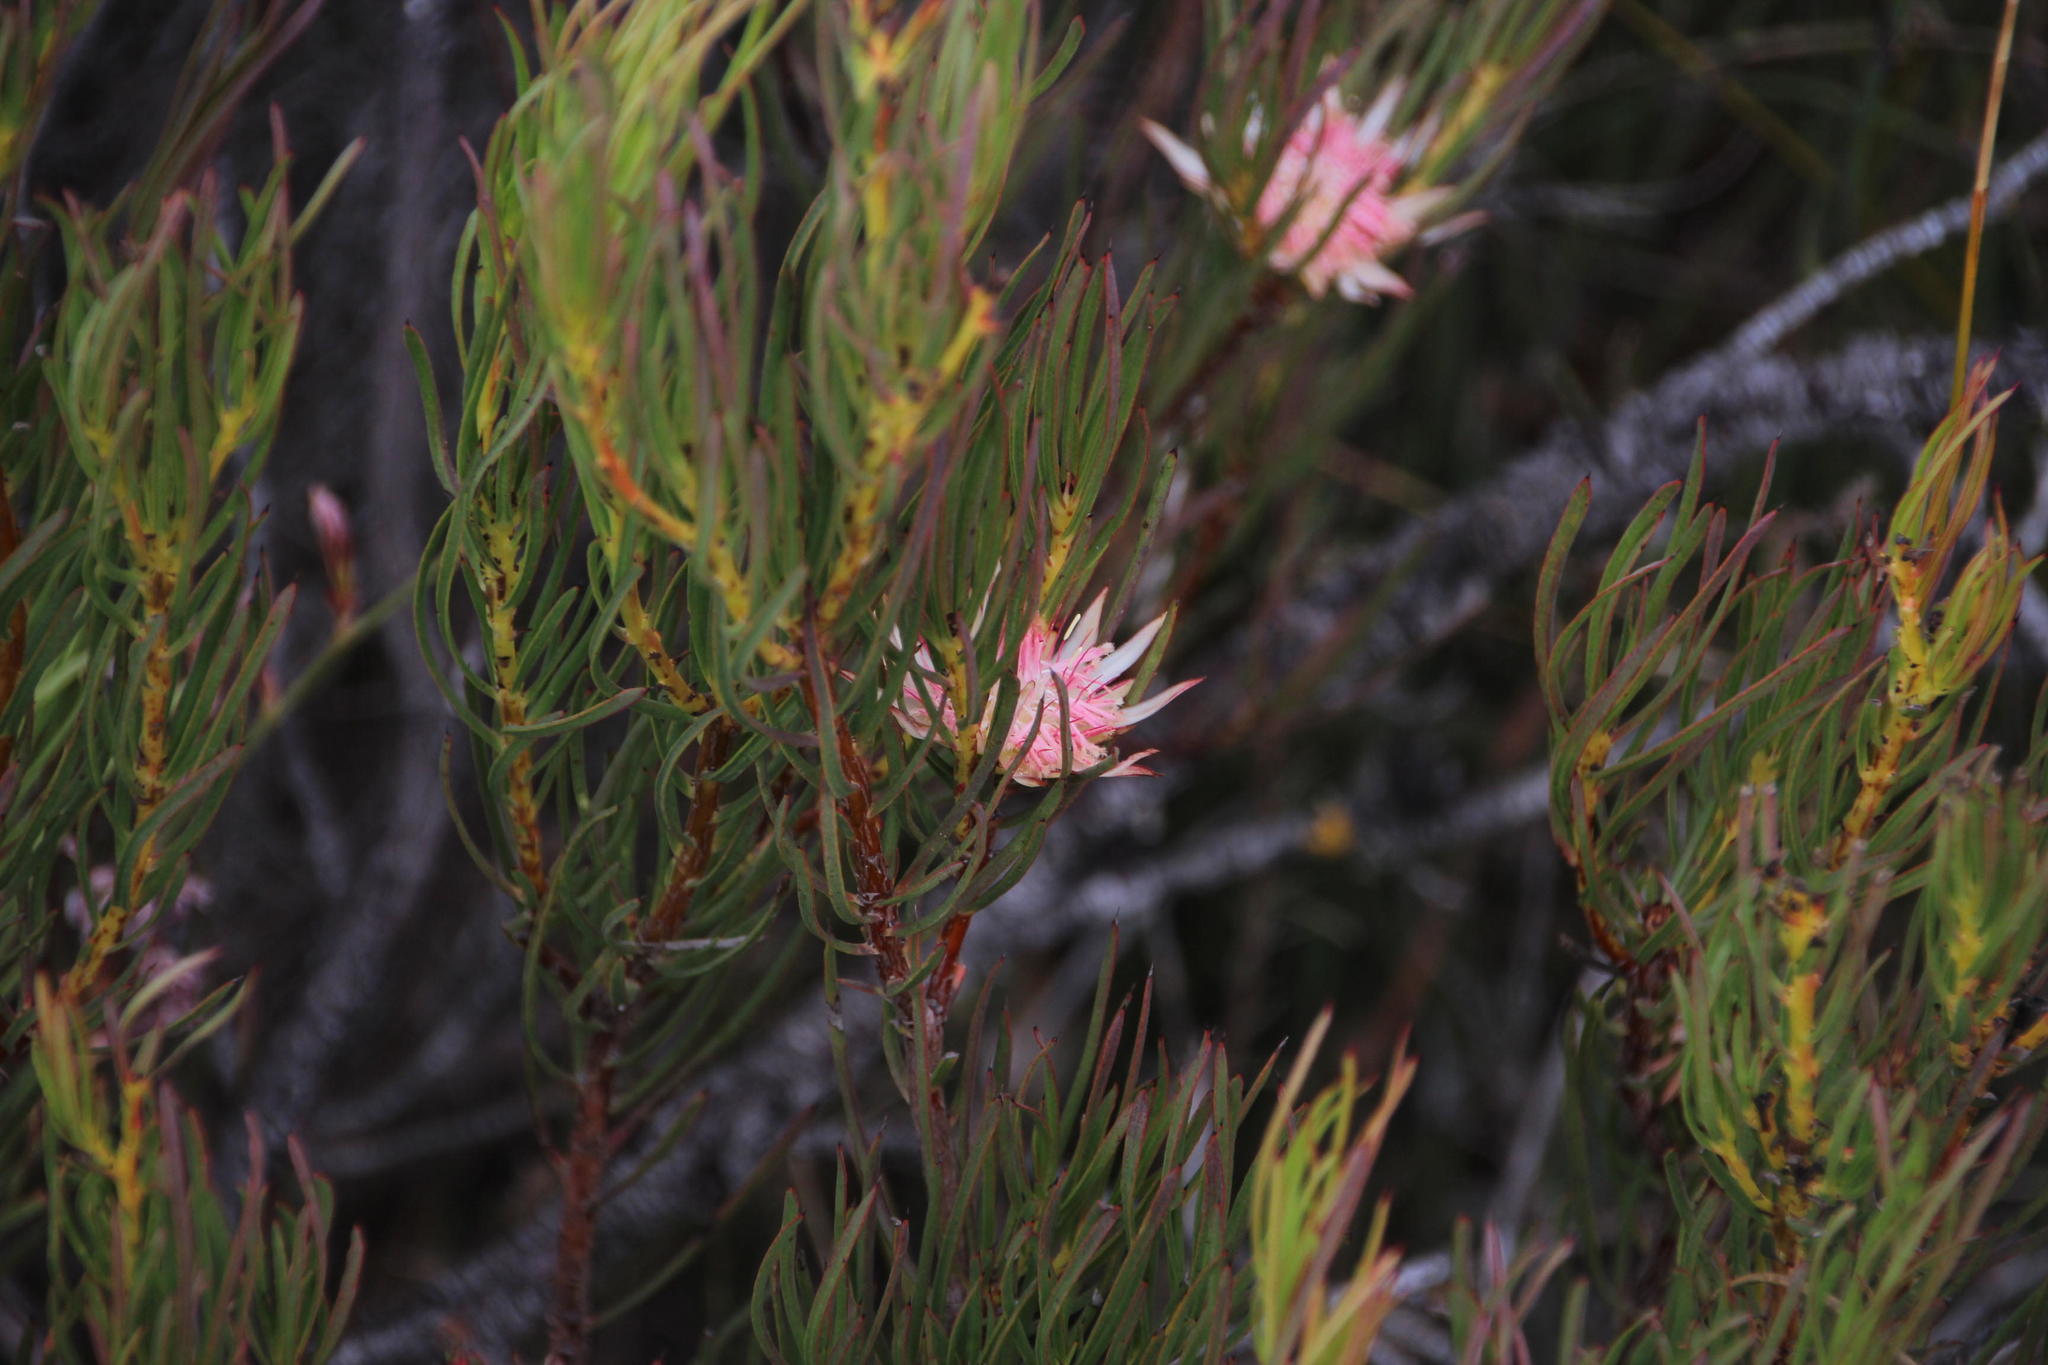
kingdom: Plantae
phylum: Tracheophyta
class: Magnoliopsida
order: Proteales
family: Proteaceae
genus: Protea
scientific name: Protea odorata
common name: Swartland sugarbush
